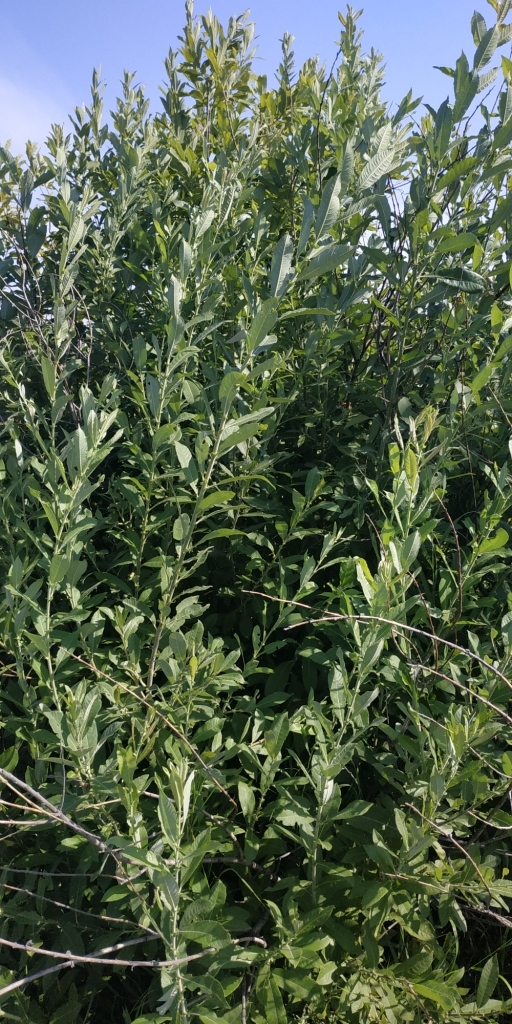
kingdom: Plantae
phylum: Tracheophyta
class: Magnoliopsida
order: Malpighiales
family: Salicaceae
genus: Salix
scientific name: Salix cinerea
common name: Common sallow
